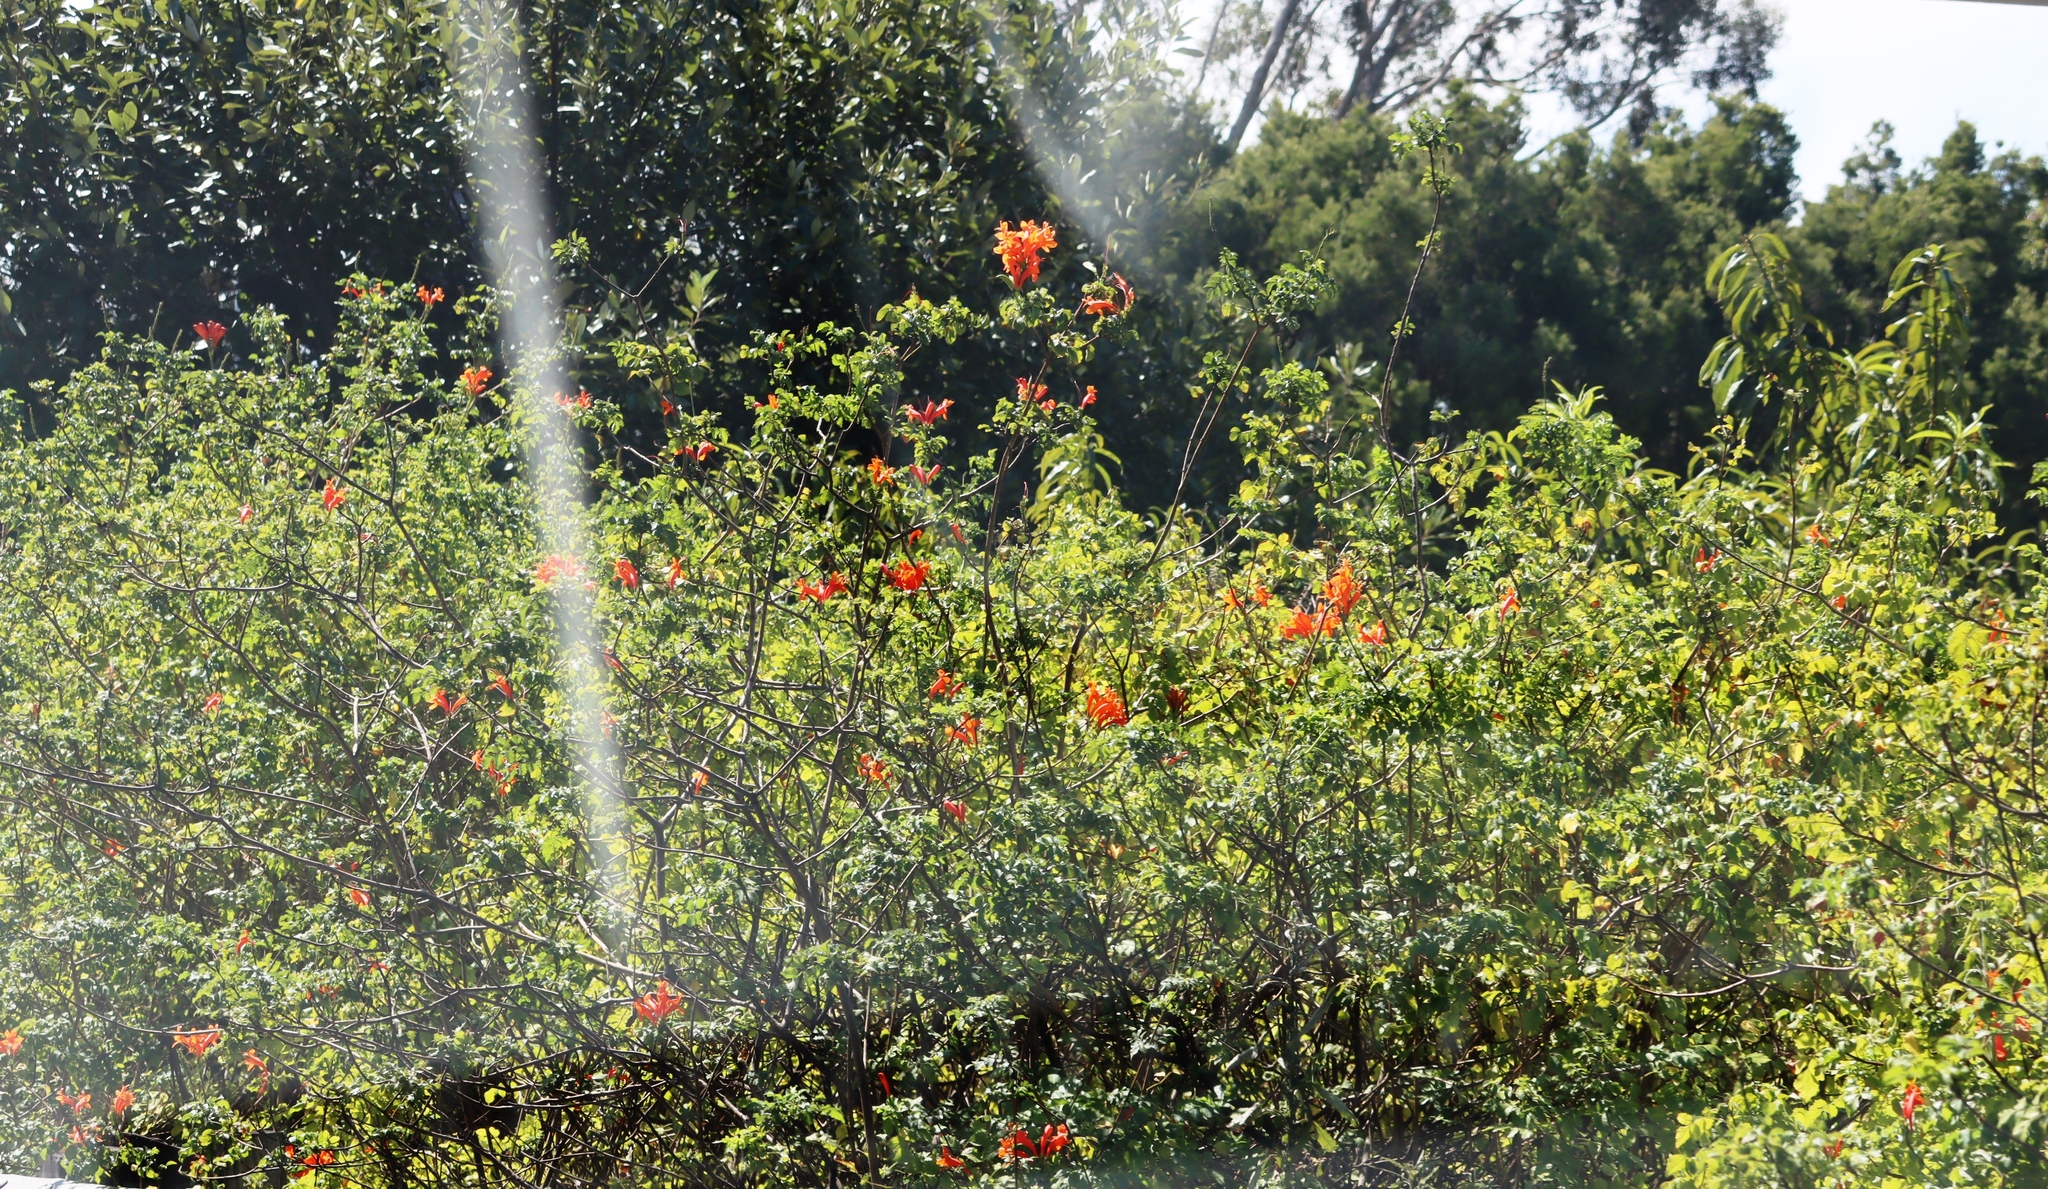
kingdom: Plantae
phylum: Tracheophyta
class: Magnoliopsida
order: Lamiales
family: Bignoniaceae
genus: Tecomaria
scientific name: Tecomaria capensis
